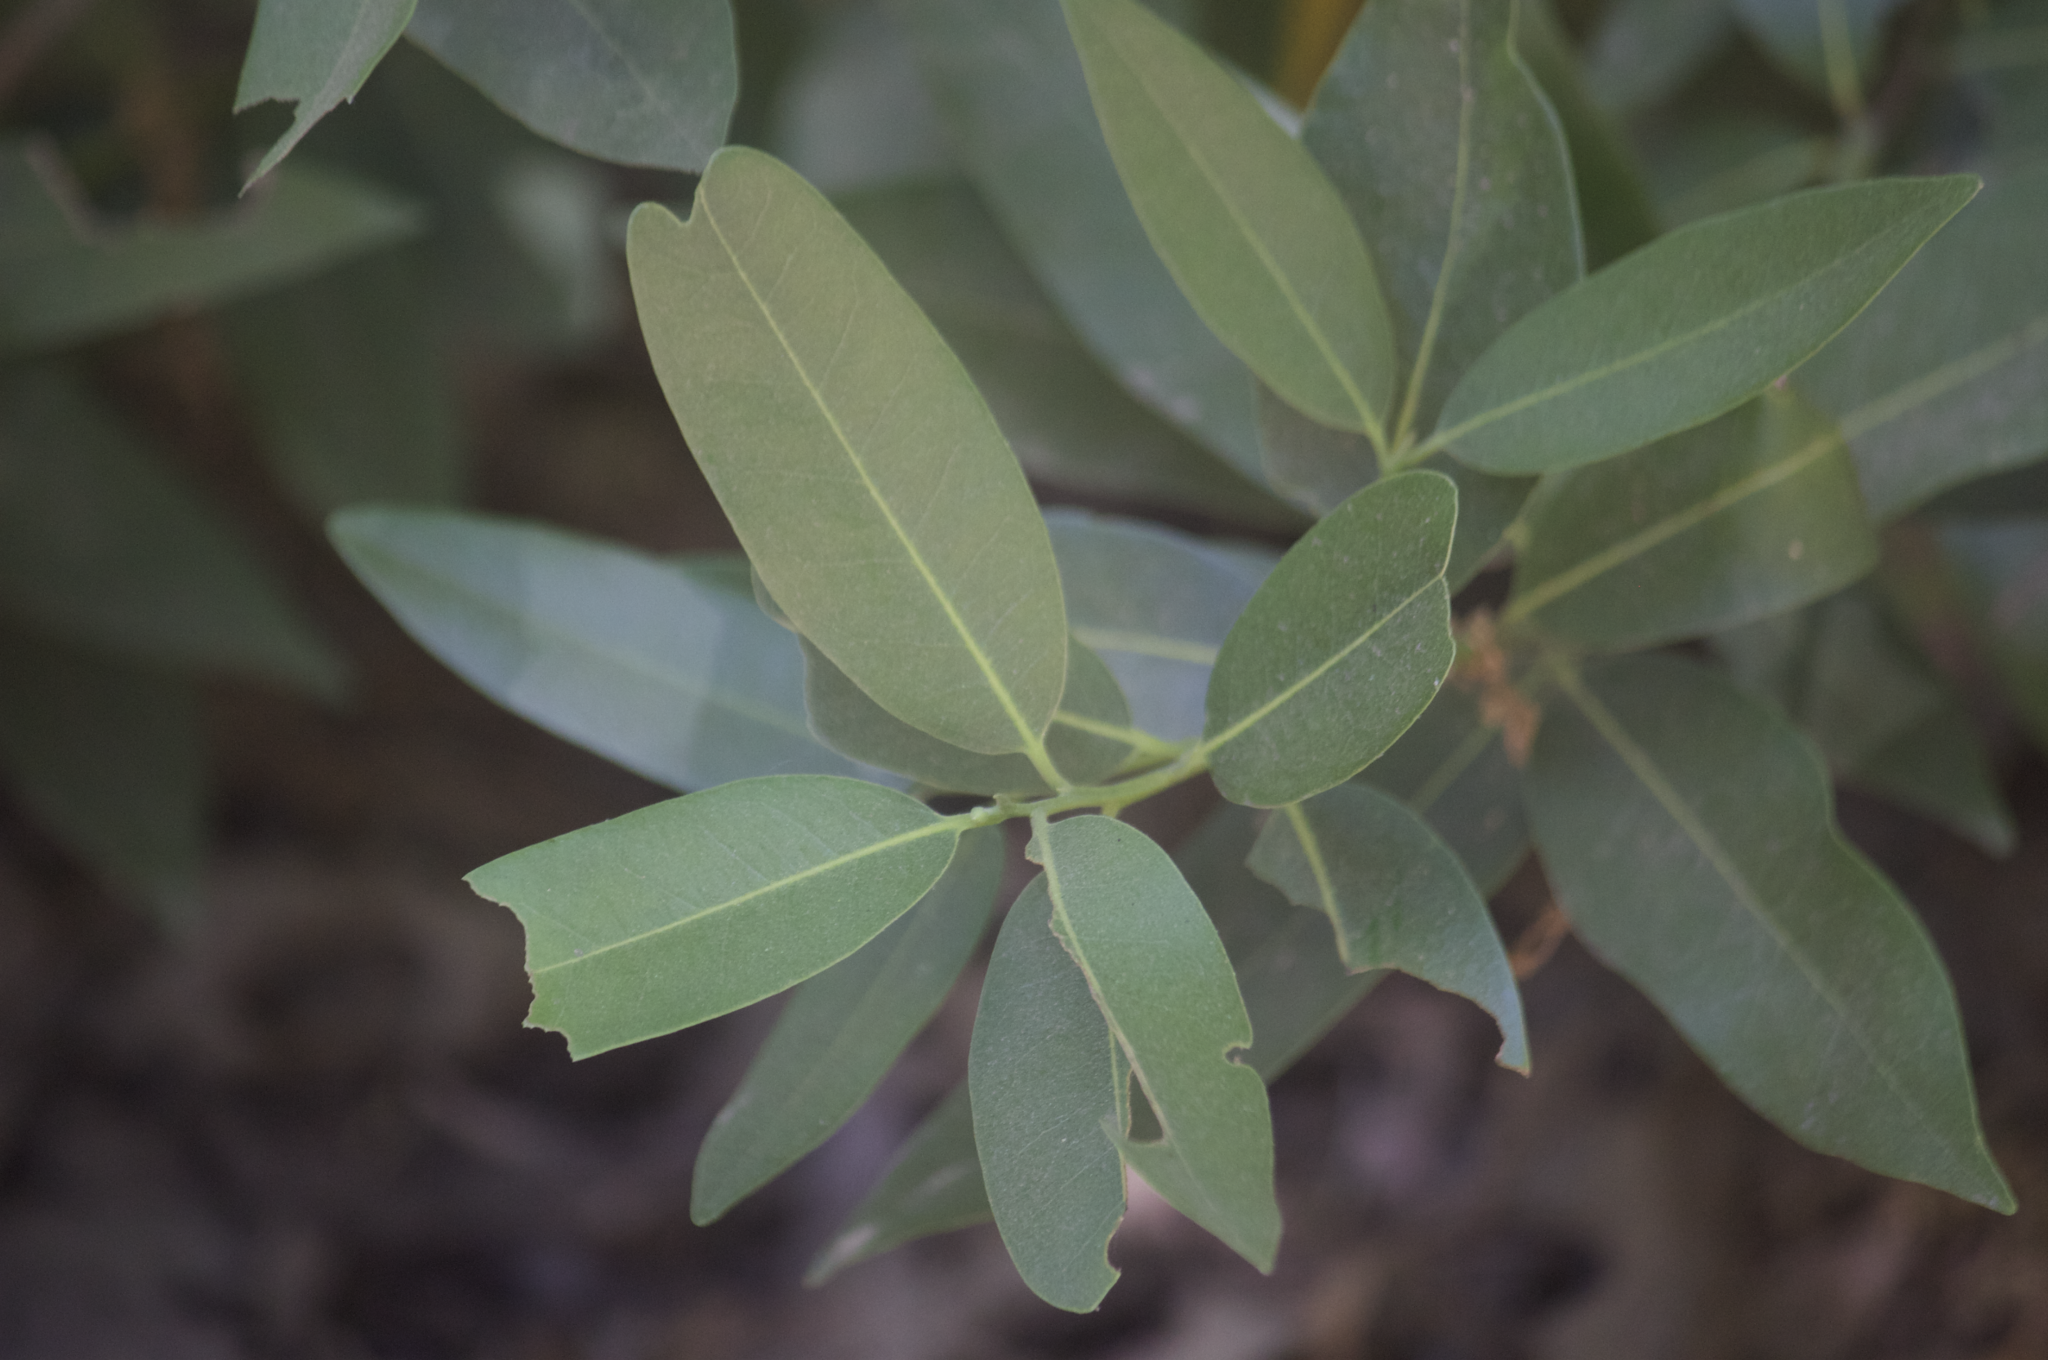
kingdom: Plantae
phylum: Tracheophyta
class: Magnoliopsida
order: Laurales
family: Lauraceae
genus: Umbellularia
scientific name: Umbellularia californica
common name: California bay
